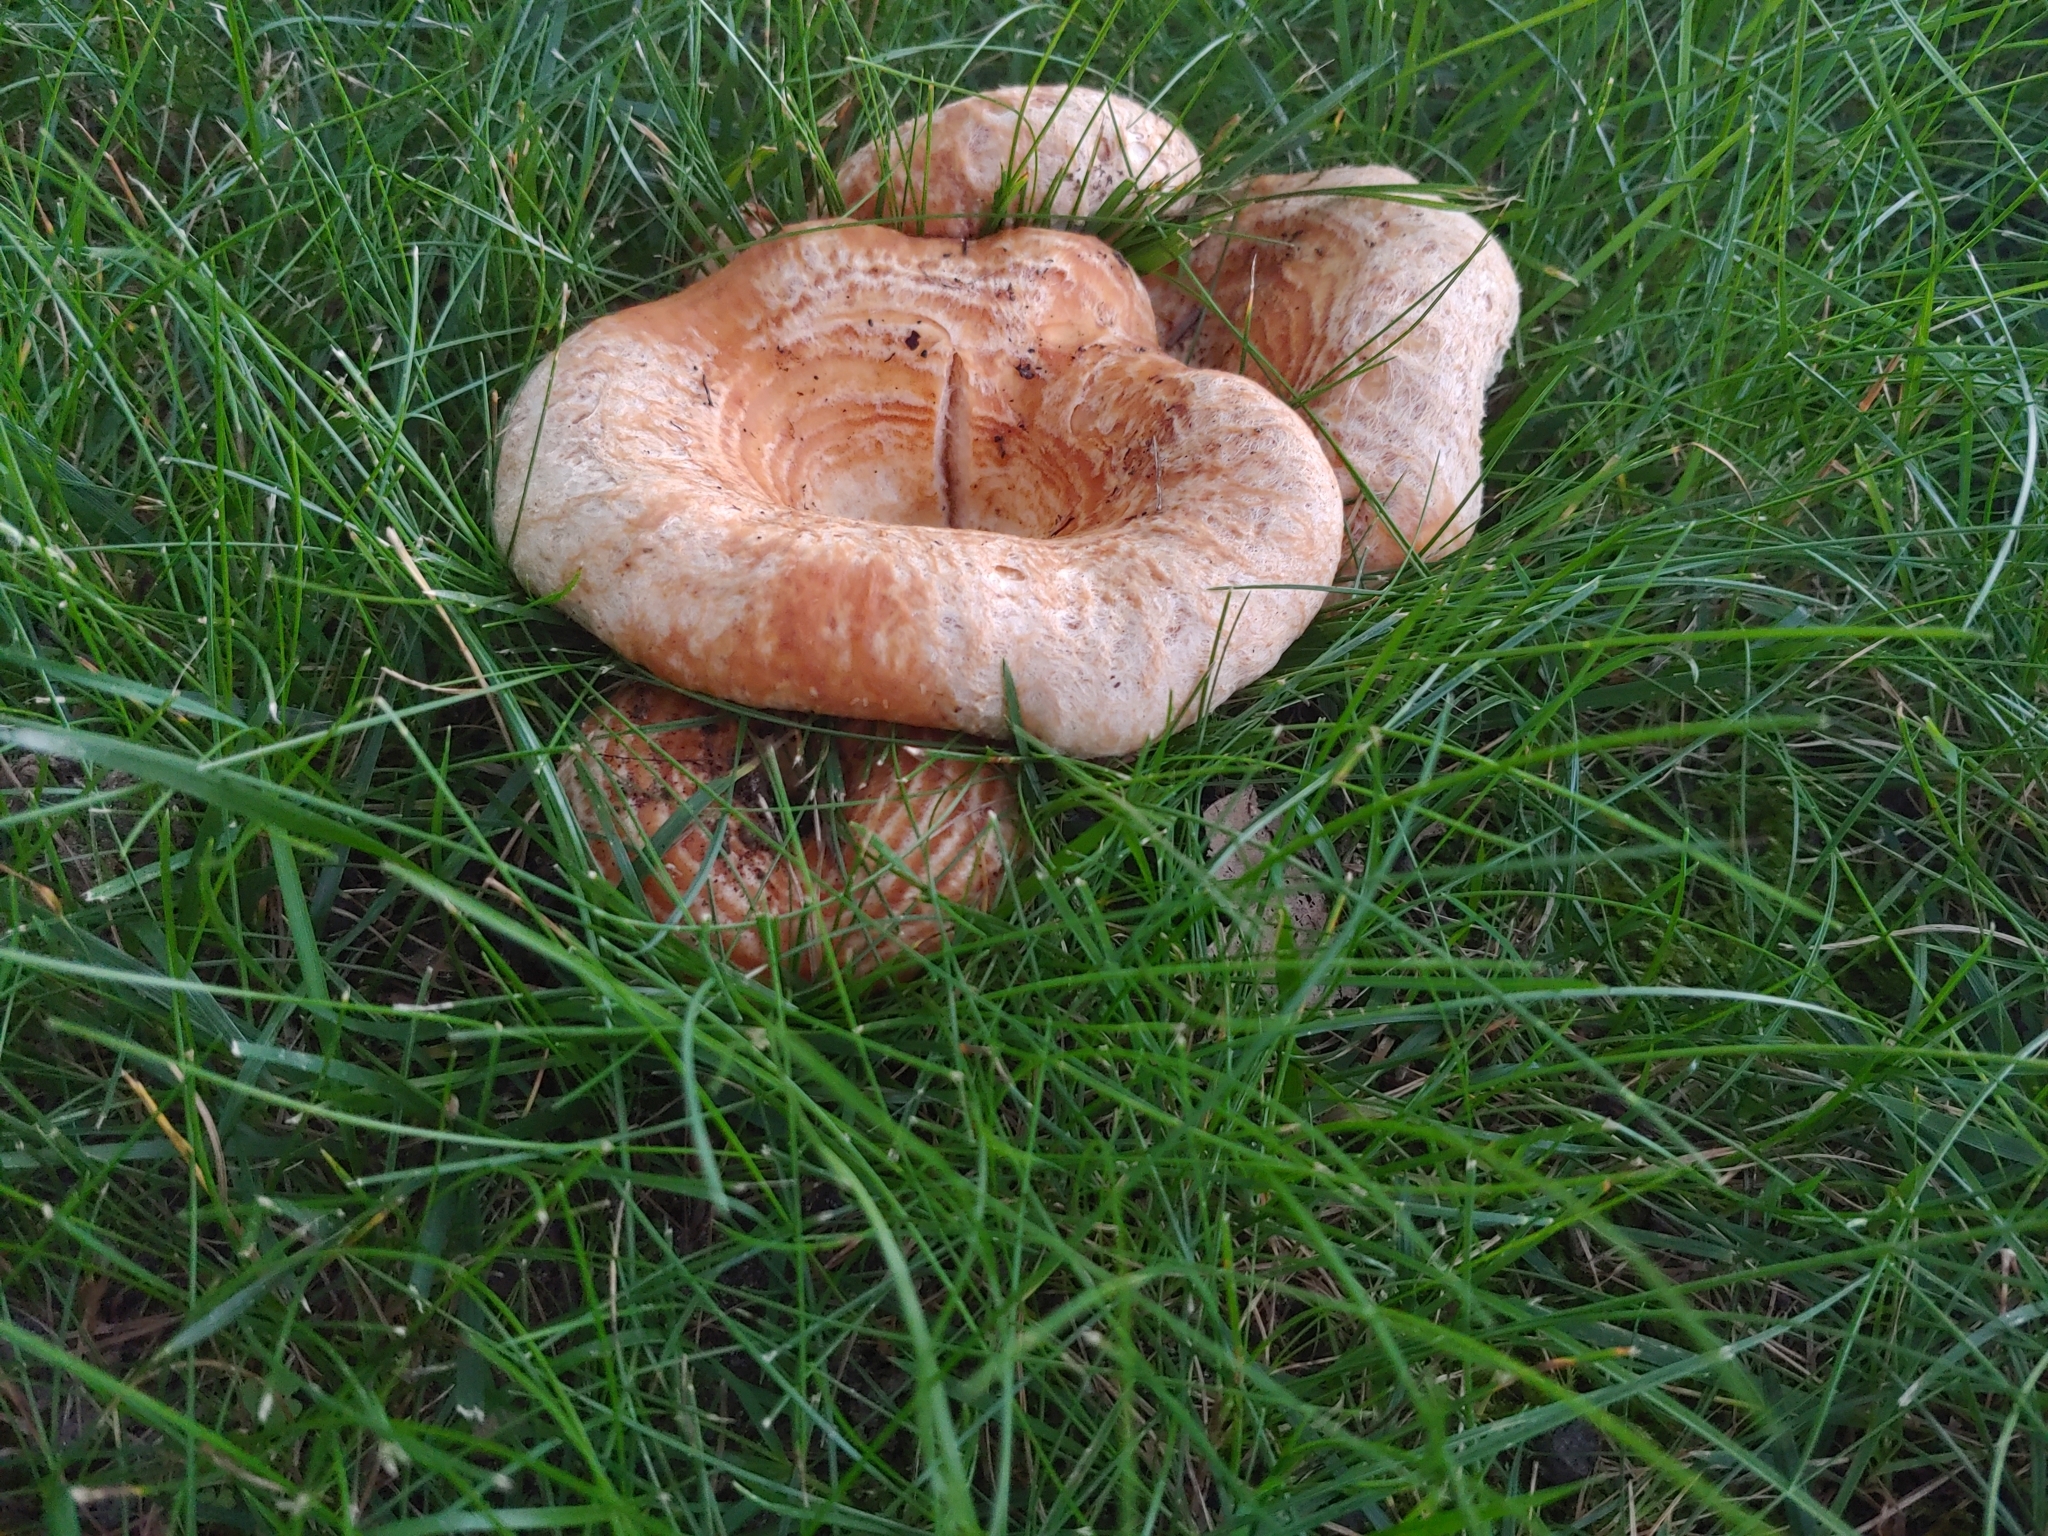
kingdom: Fungi
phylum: Basidiomycota
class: Agaricomycetes
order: Russulales
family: Russulaceae
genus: Lactarius
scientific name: Lactarius psammicola
